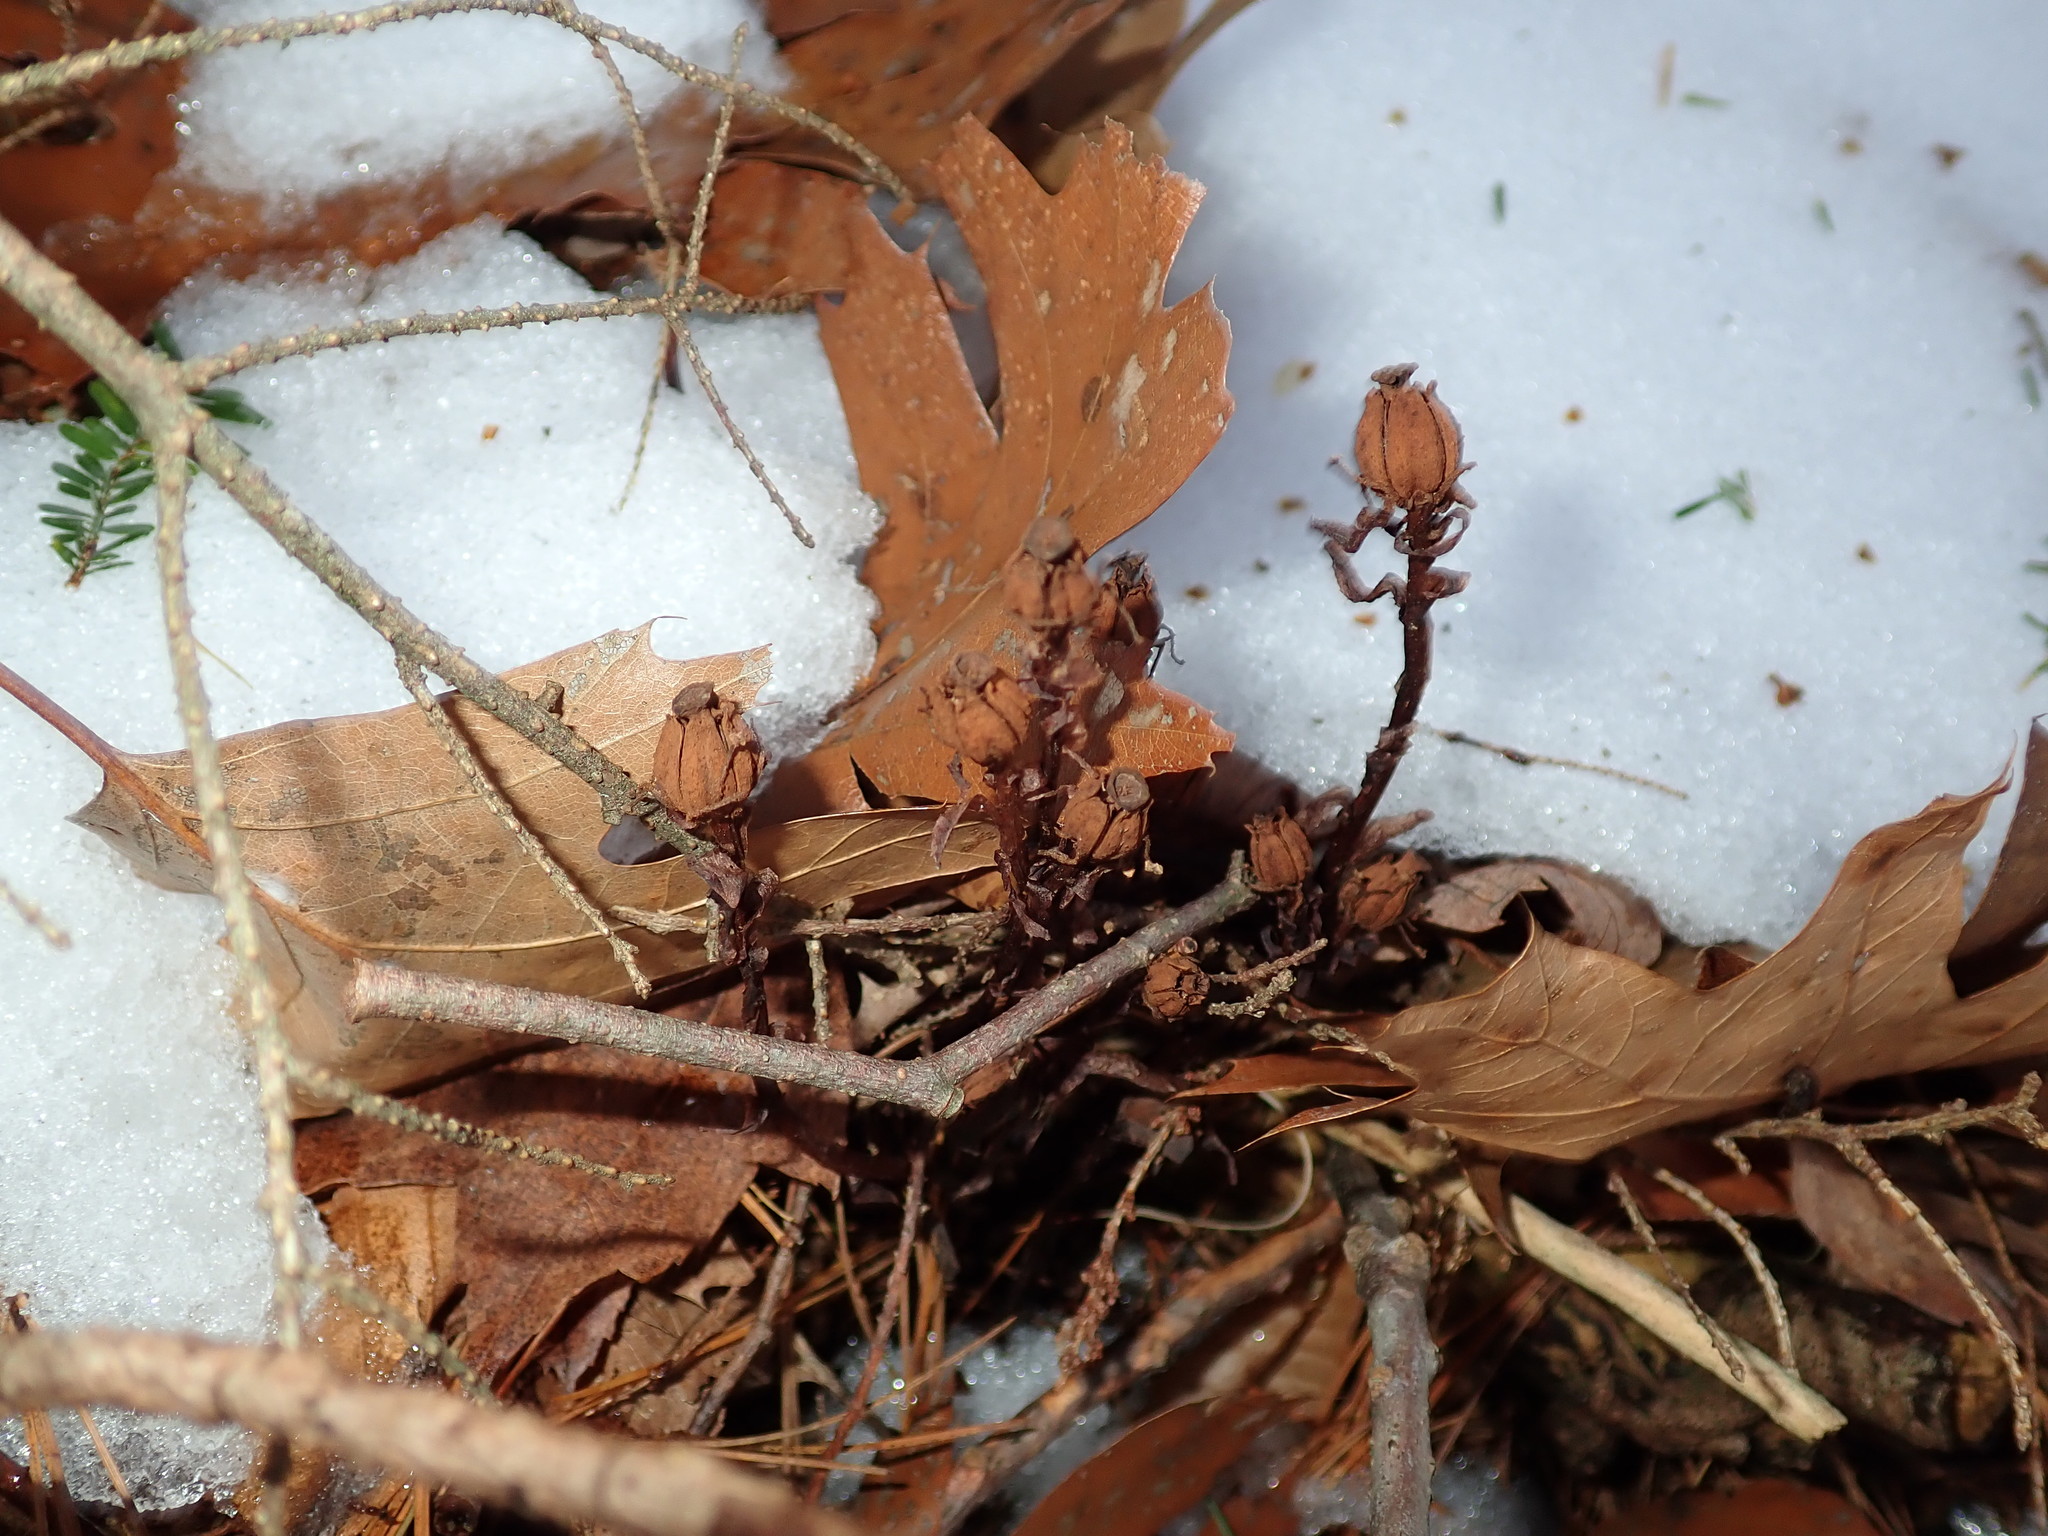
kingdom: Plantae
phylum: Tracheophyta
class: Magnoliopsida
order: Ericales
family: Ericaceae
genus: Monotropa
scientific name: Monotropa uniflora
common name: Convulsion root
